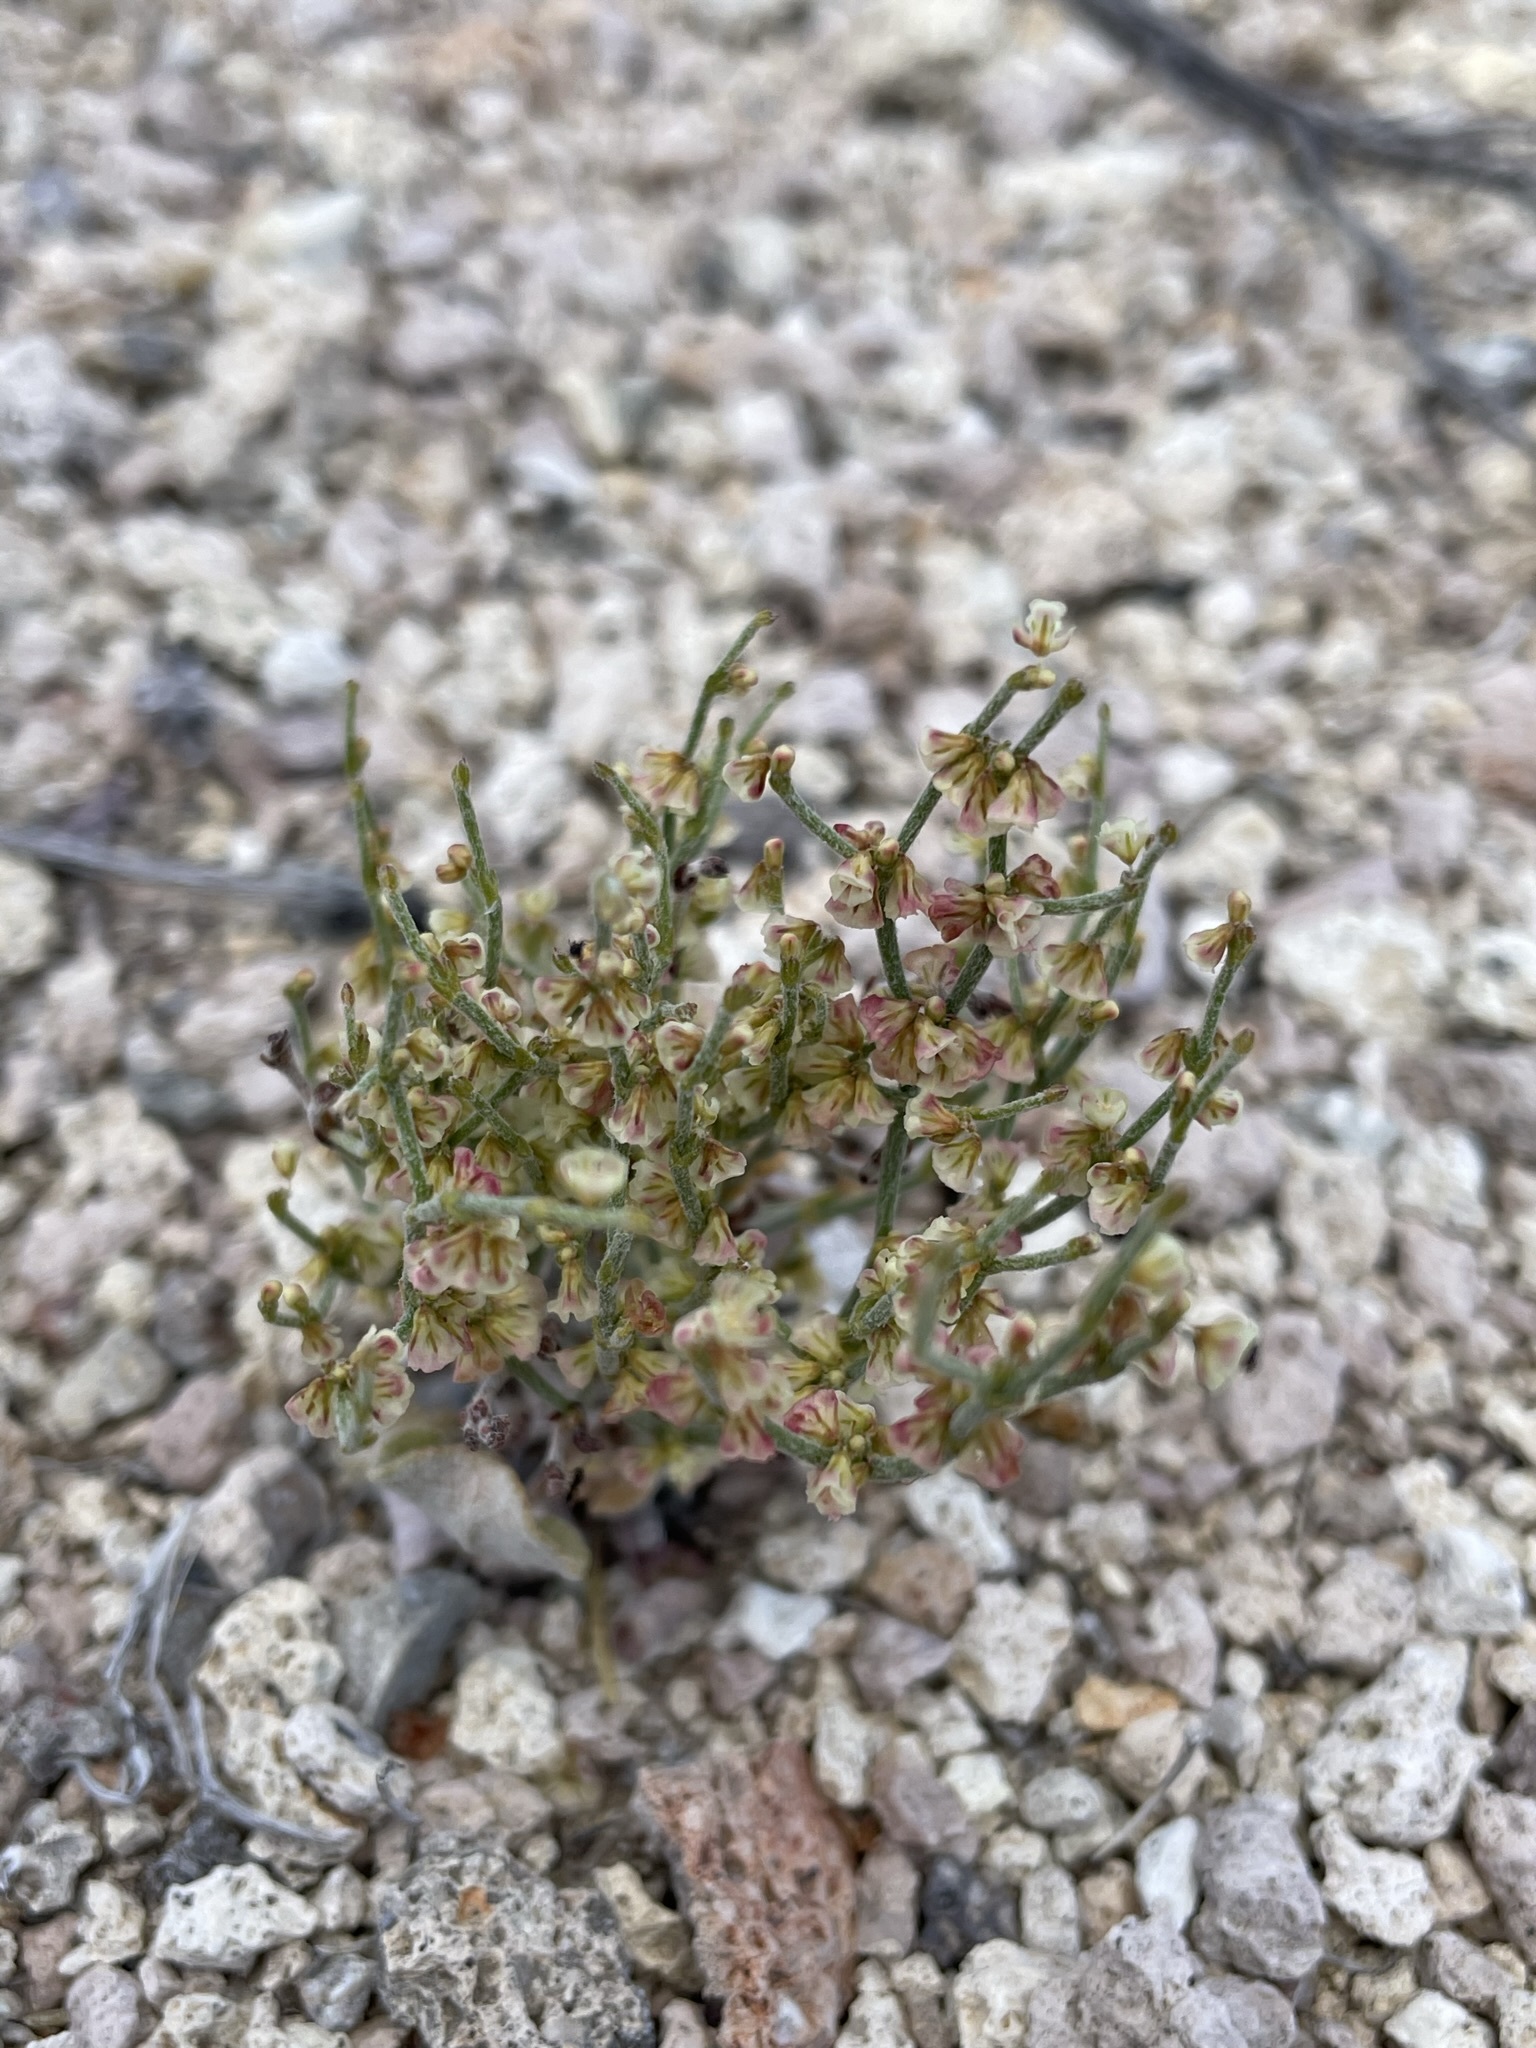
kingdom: Plantae
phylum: Tracheophyta
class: Magnoliopsida
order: Caryophyllales
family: Polygonaceae
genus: Eriogonum
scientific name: Eriogonum nidularium
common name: Bird's-nest wild buckwheat
